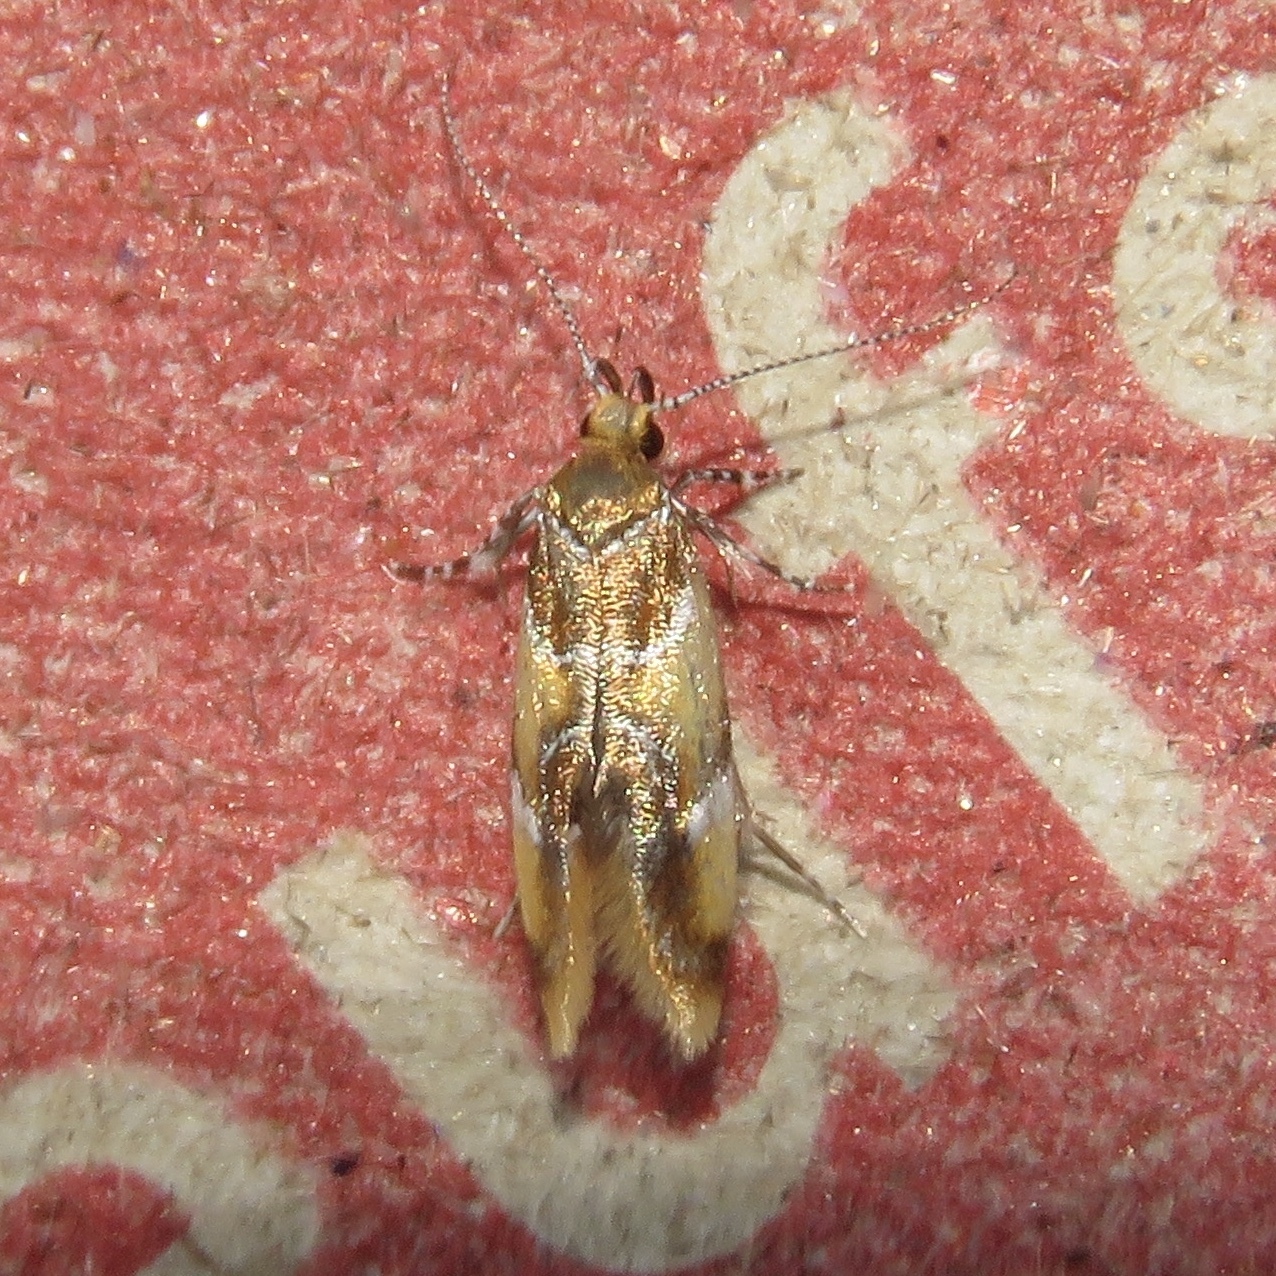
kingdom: Animalia
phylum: Arthropoda
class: Insecta
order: Lepidoptera
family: Oecophoridae
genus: Callima
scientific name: Callima argenticinctella
